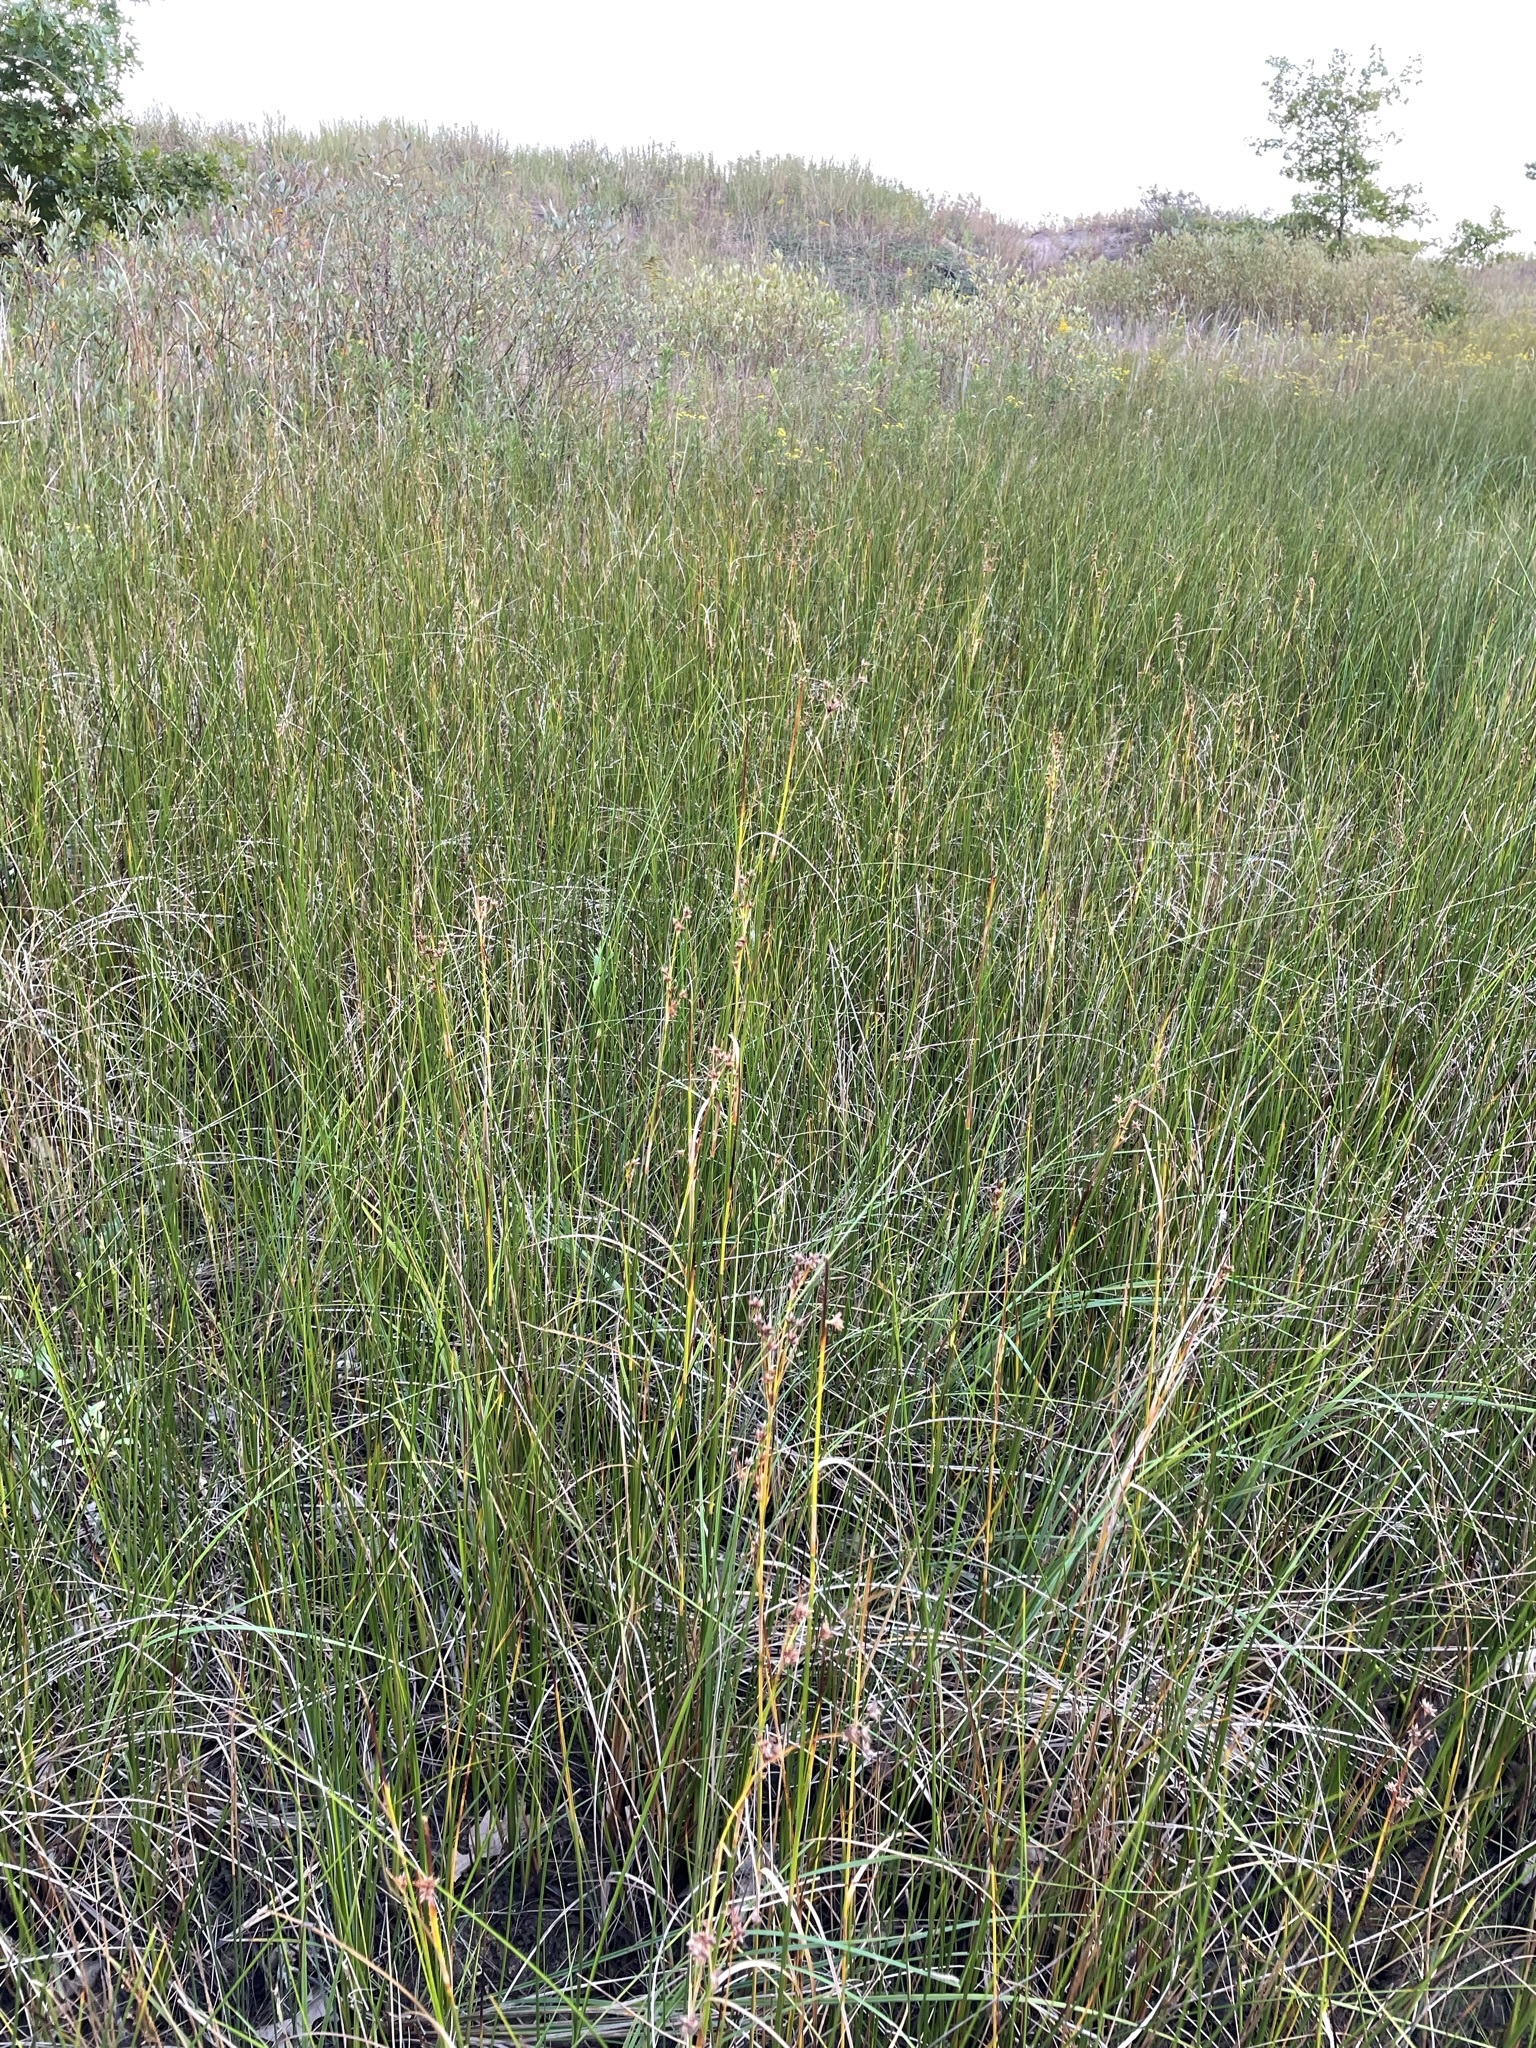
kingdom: Plantae
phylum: Tracheophyta
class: Liliopsida
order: Poales
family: Cyperaceae
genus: Cladium
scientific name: Cladium mariscoides
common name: Smooth sawgrass
